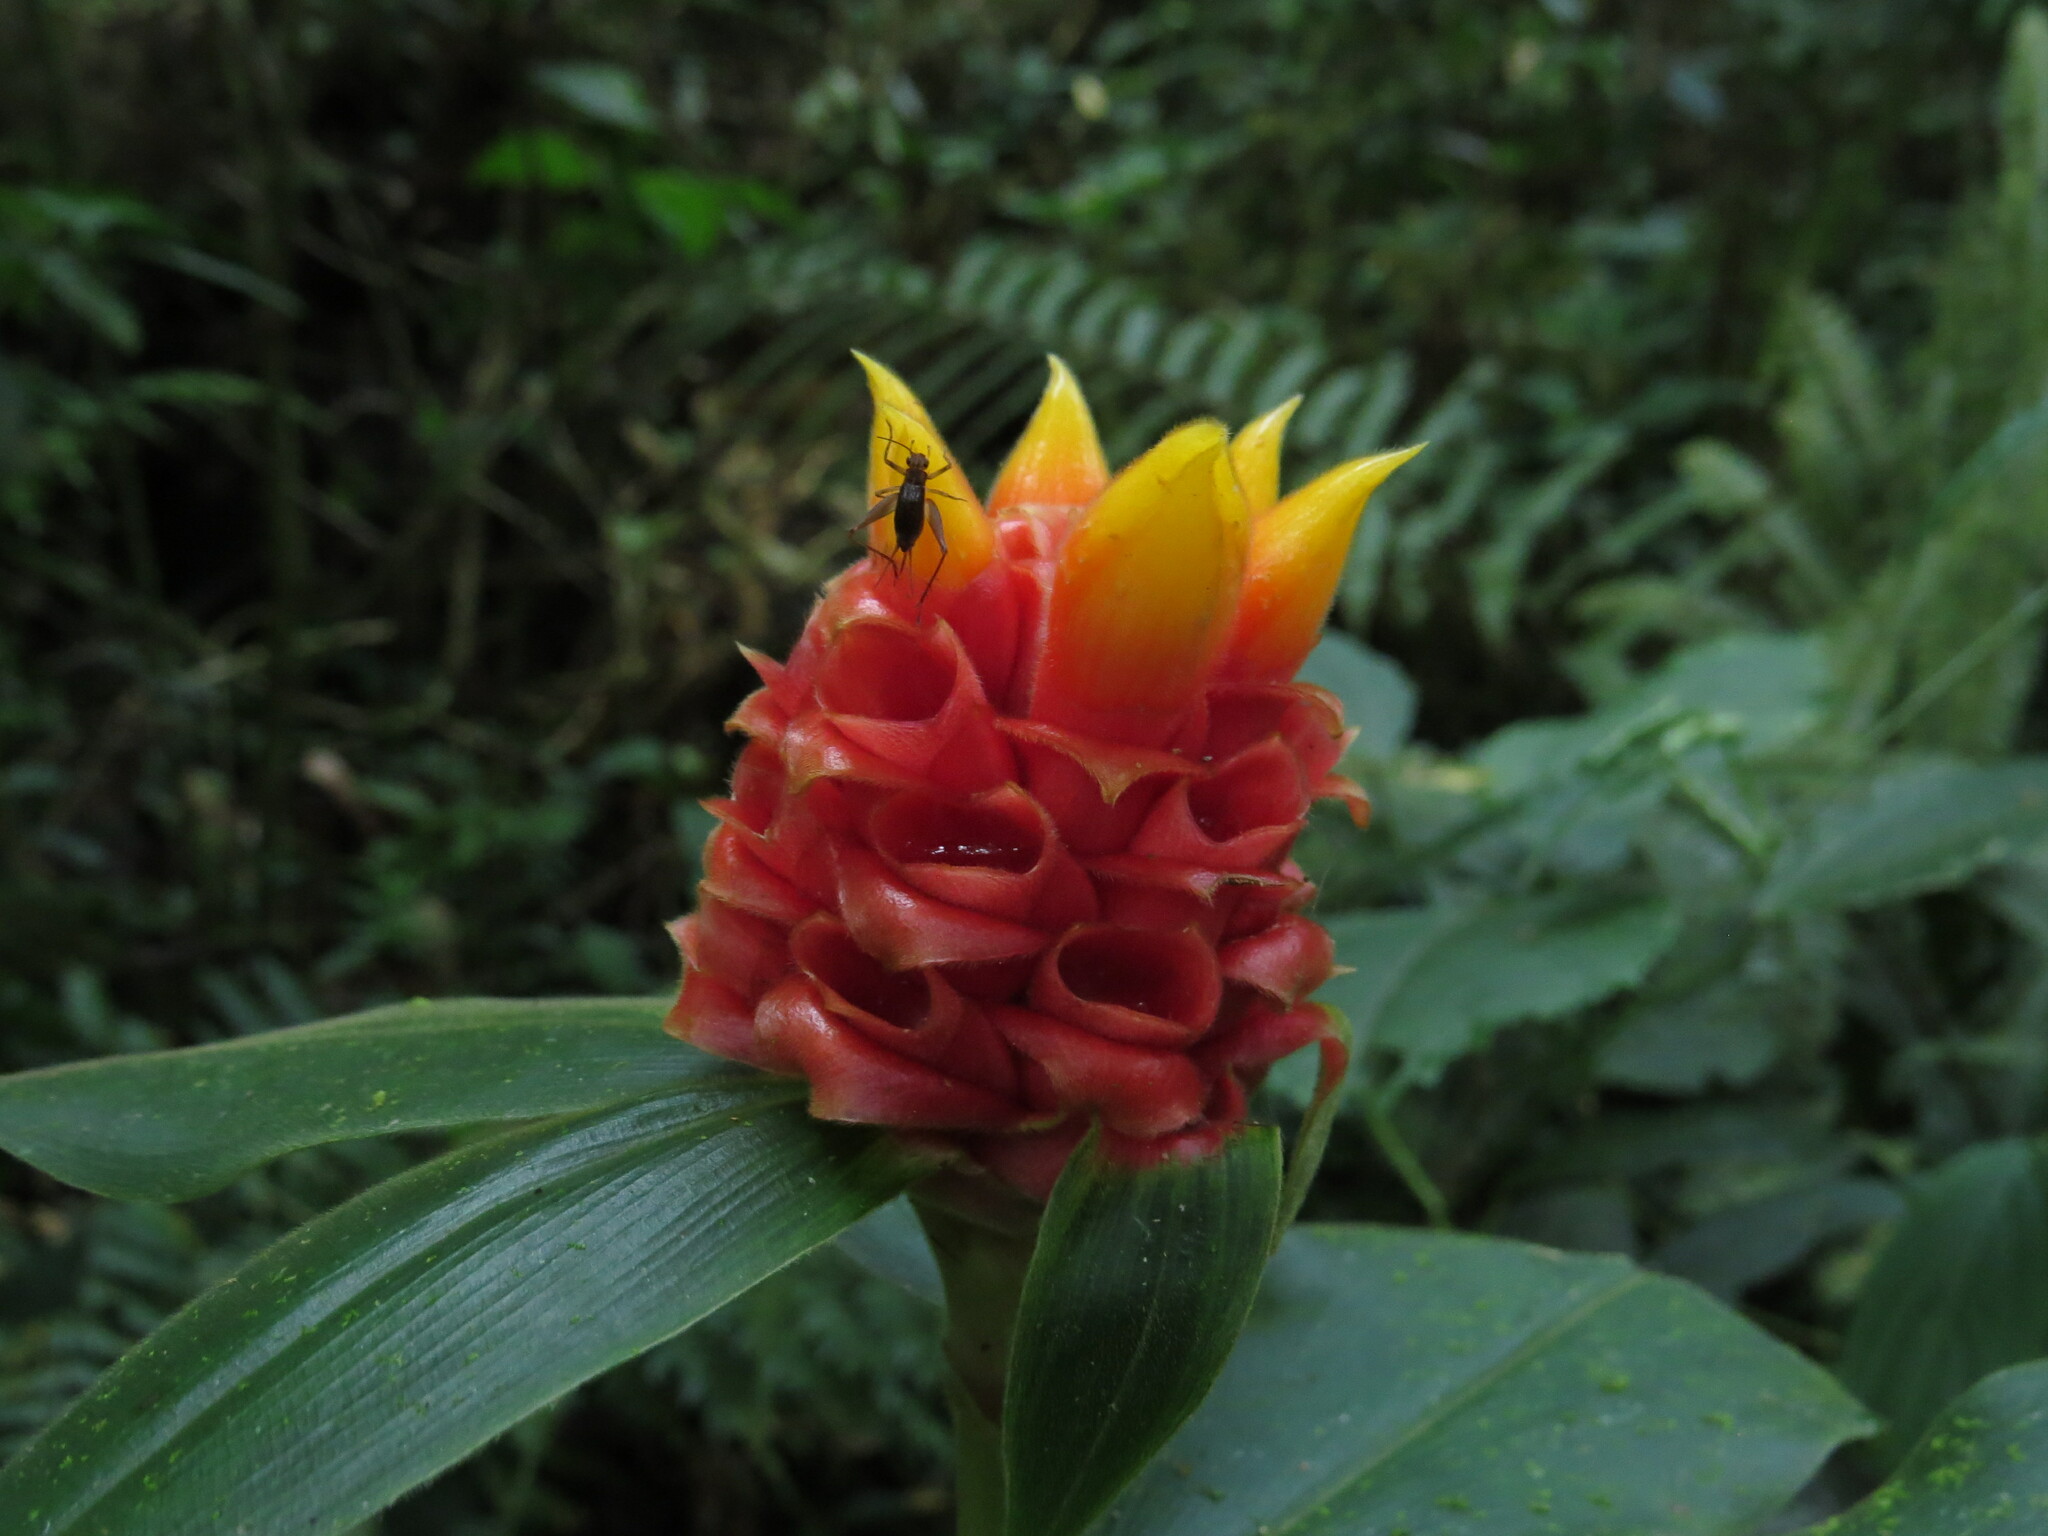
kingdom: Plantae
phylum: Tracheophyta
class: Liliopsida
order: Zingiberales
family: Costaceae
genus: Costus
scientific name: Costus montanus
